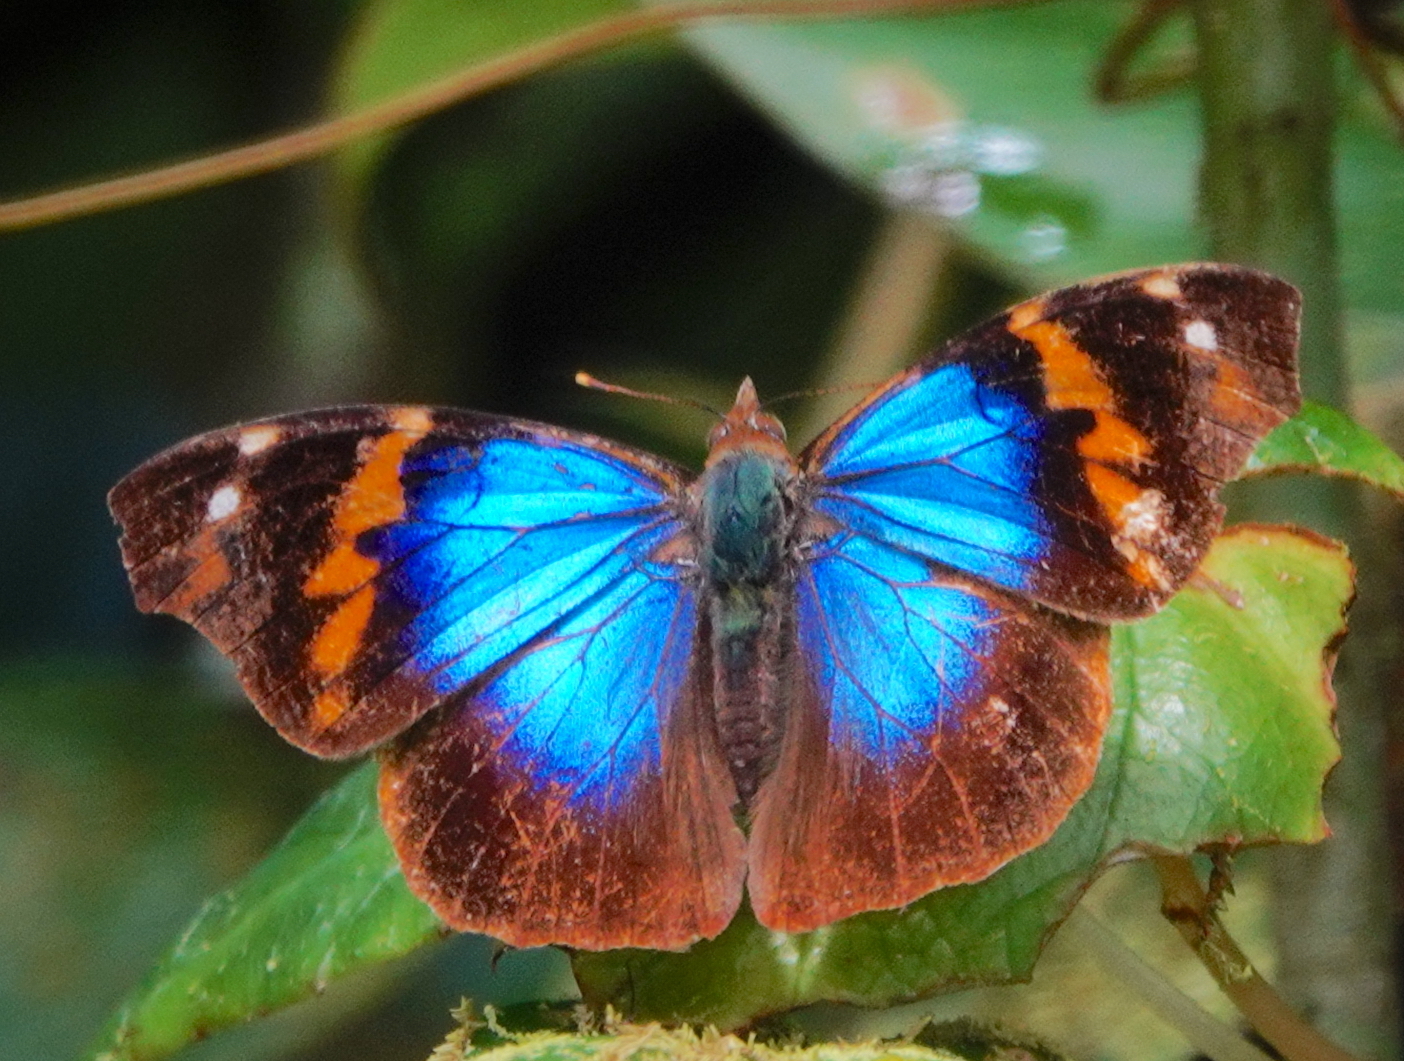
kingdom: Animalia
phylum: Arthropoda
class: Insecta
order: Lepidoptera
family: Nymphalidae
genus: Epiphile
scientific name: Epiphile epimenes
